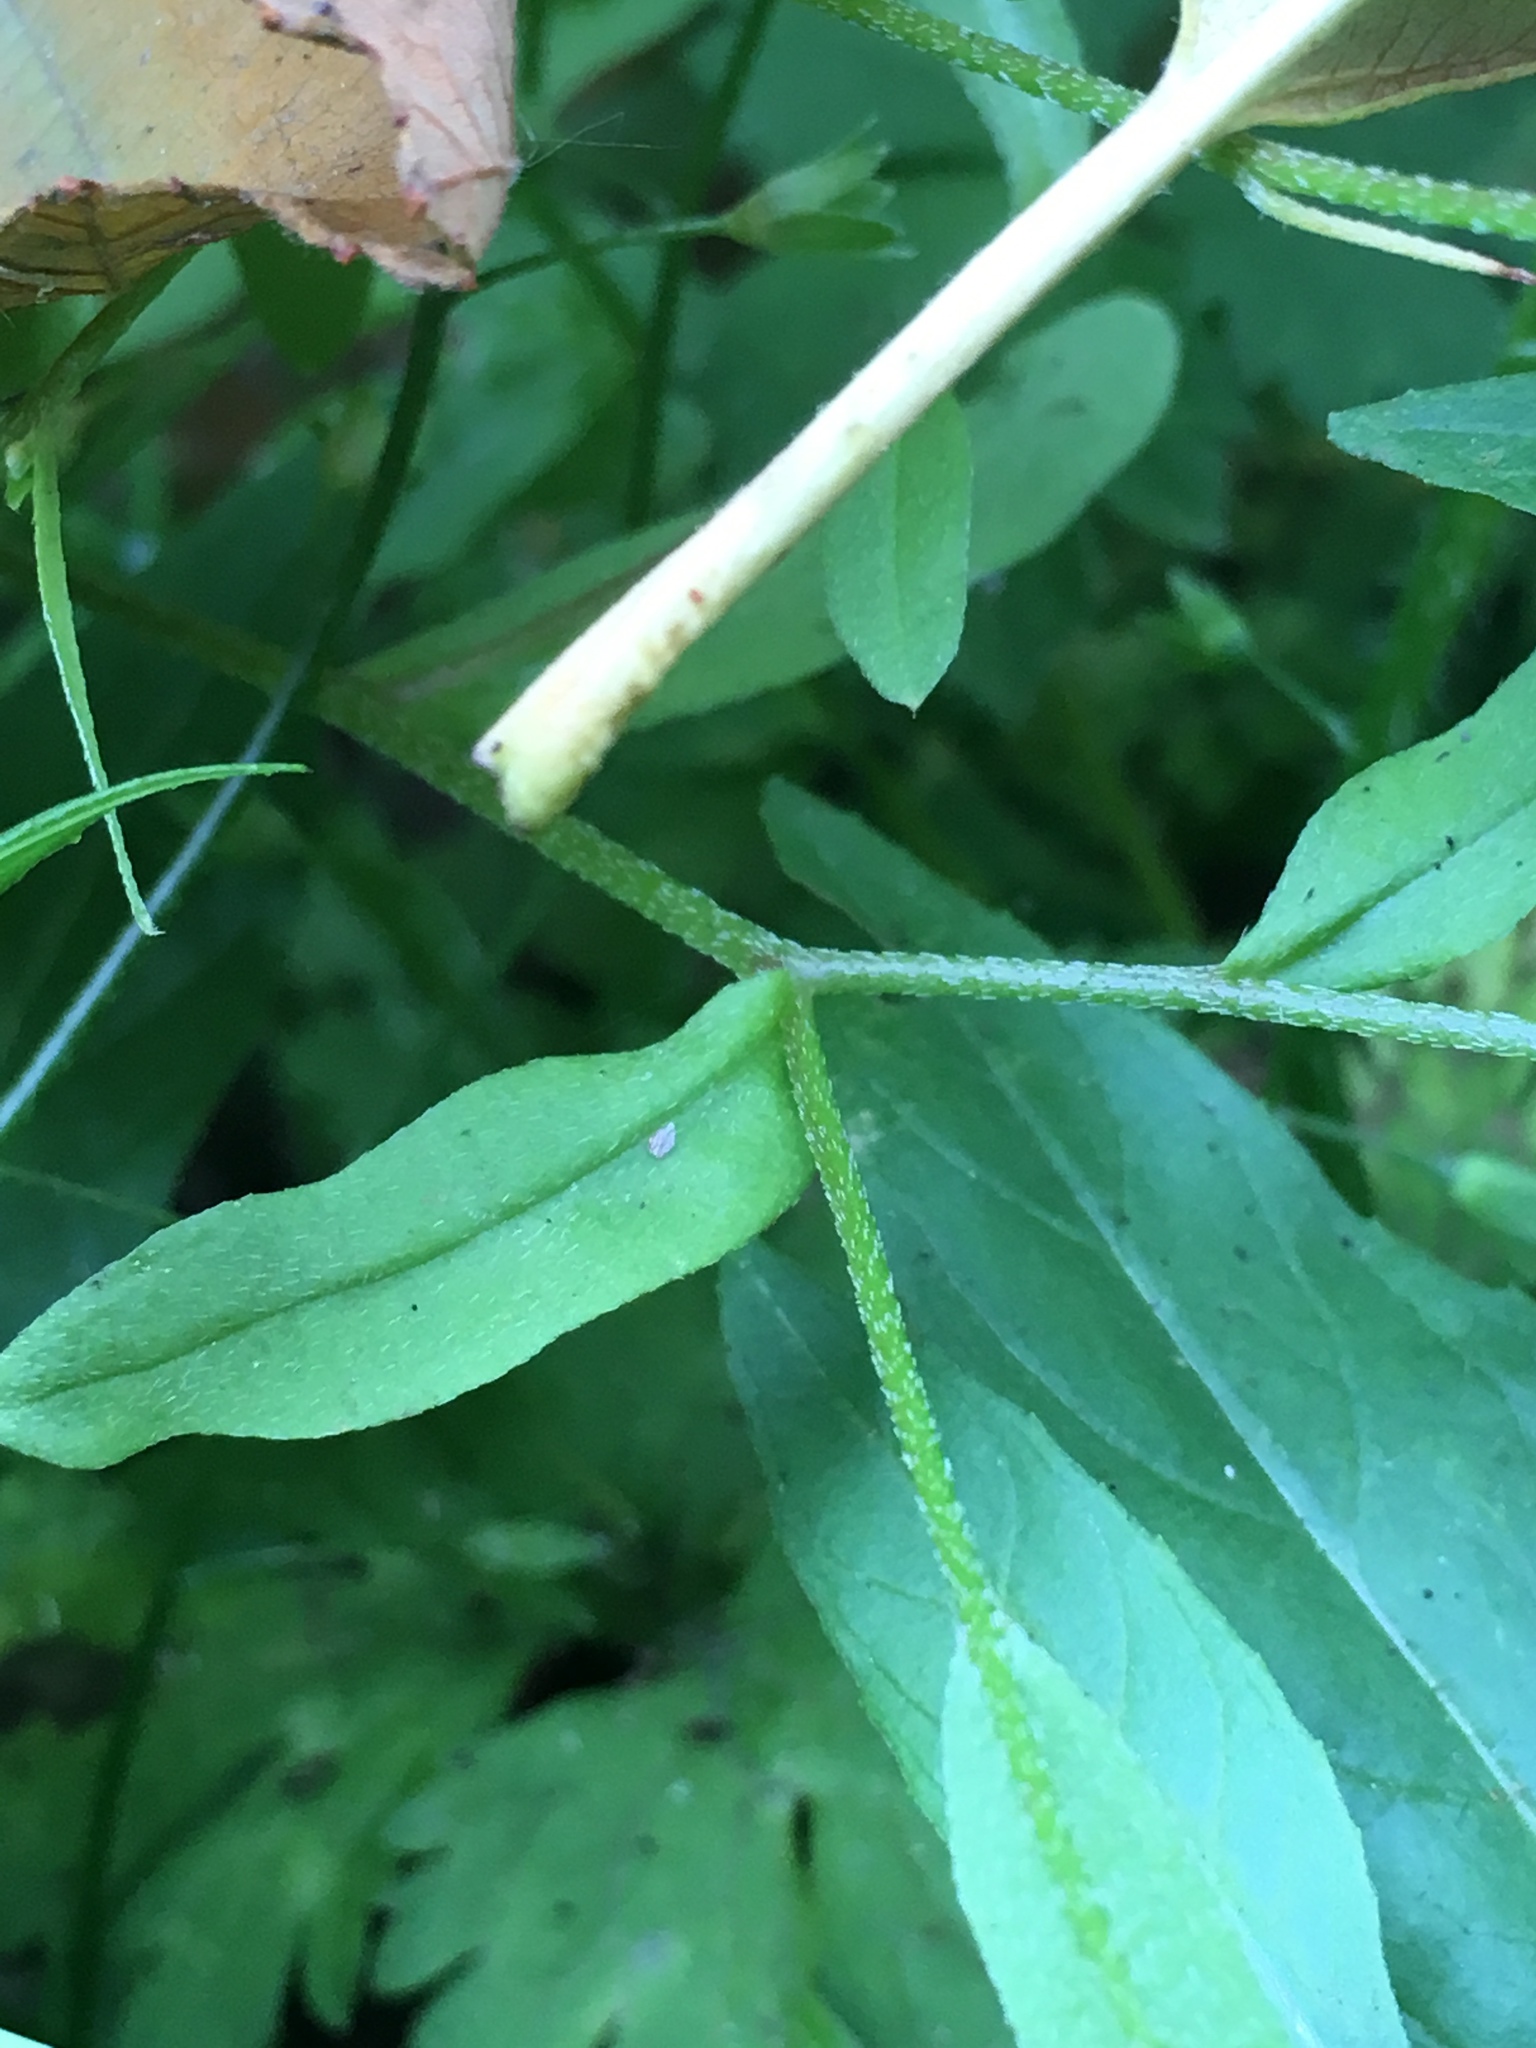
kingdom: Plantae
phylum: Tracheophyta
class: Magnoliopsida
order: Boraginales
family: Boraginaceae
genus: Myosotis
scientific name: Myosotis laxa
